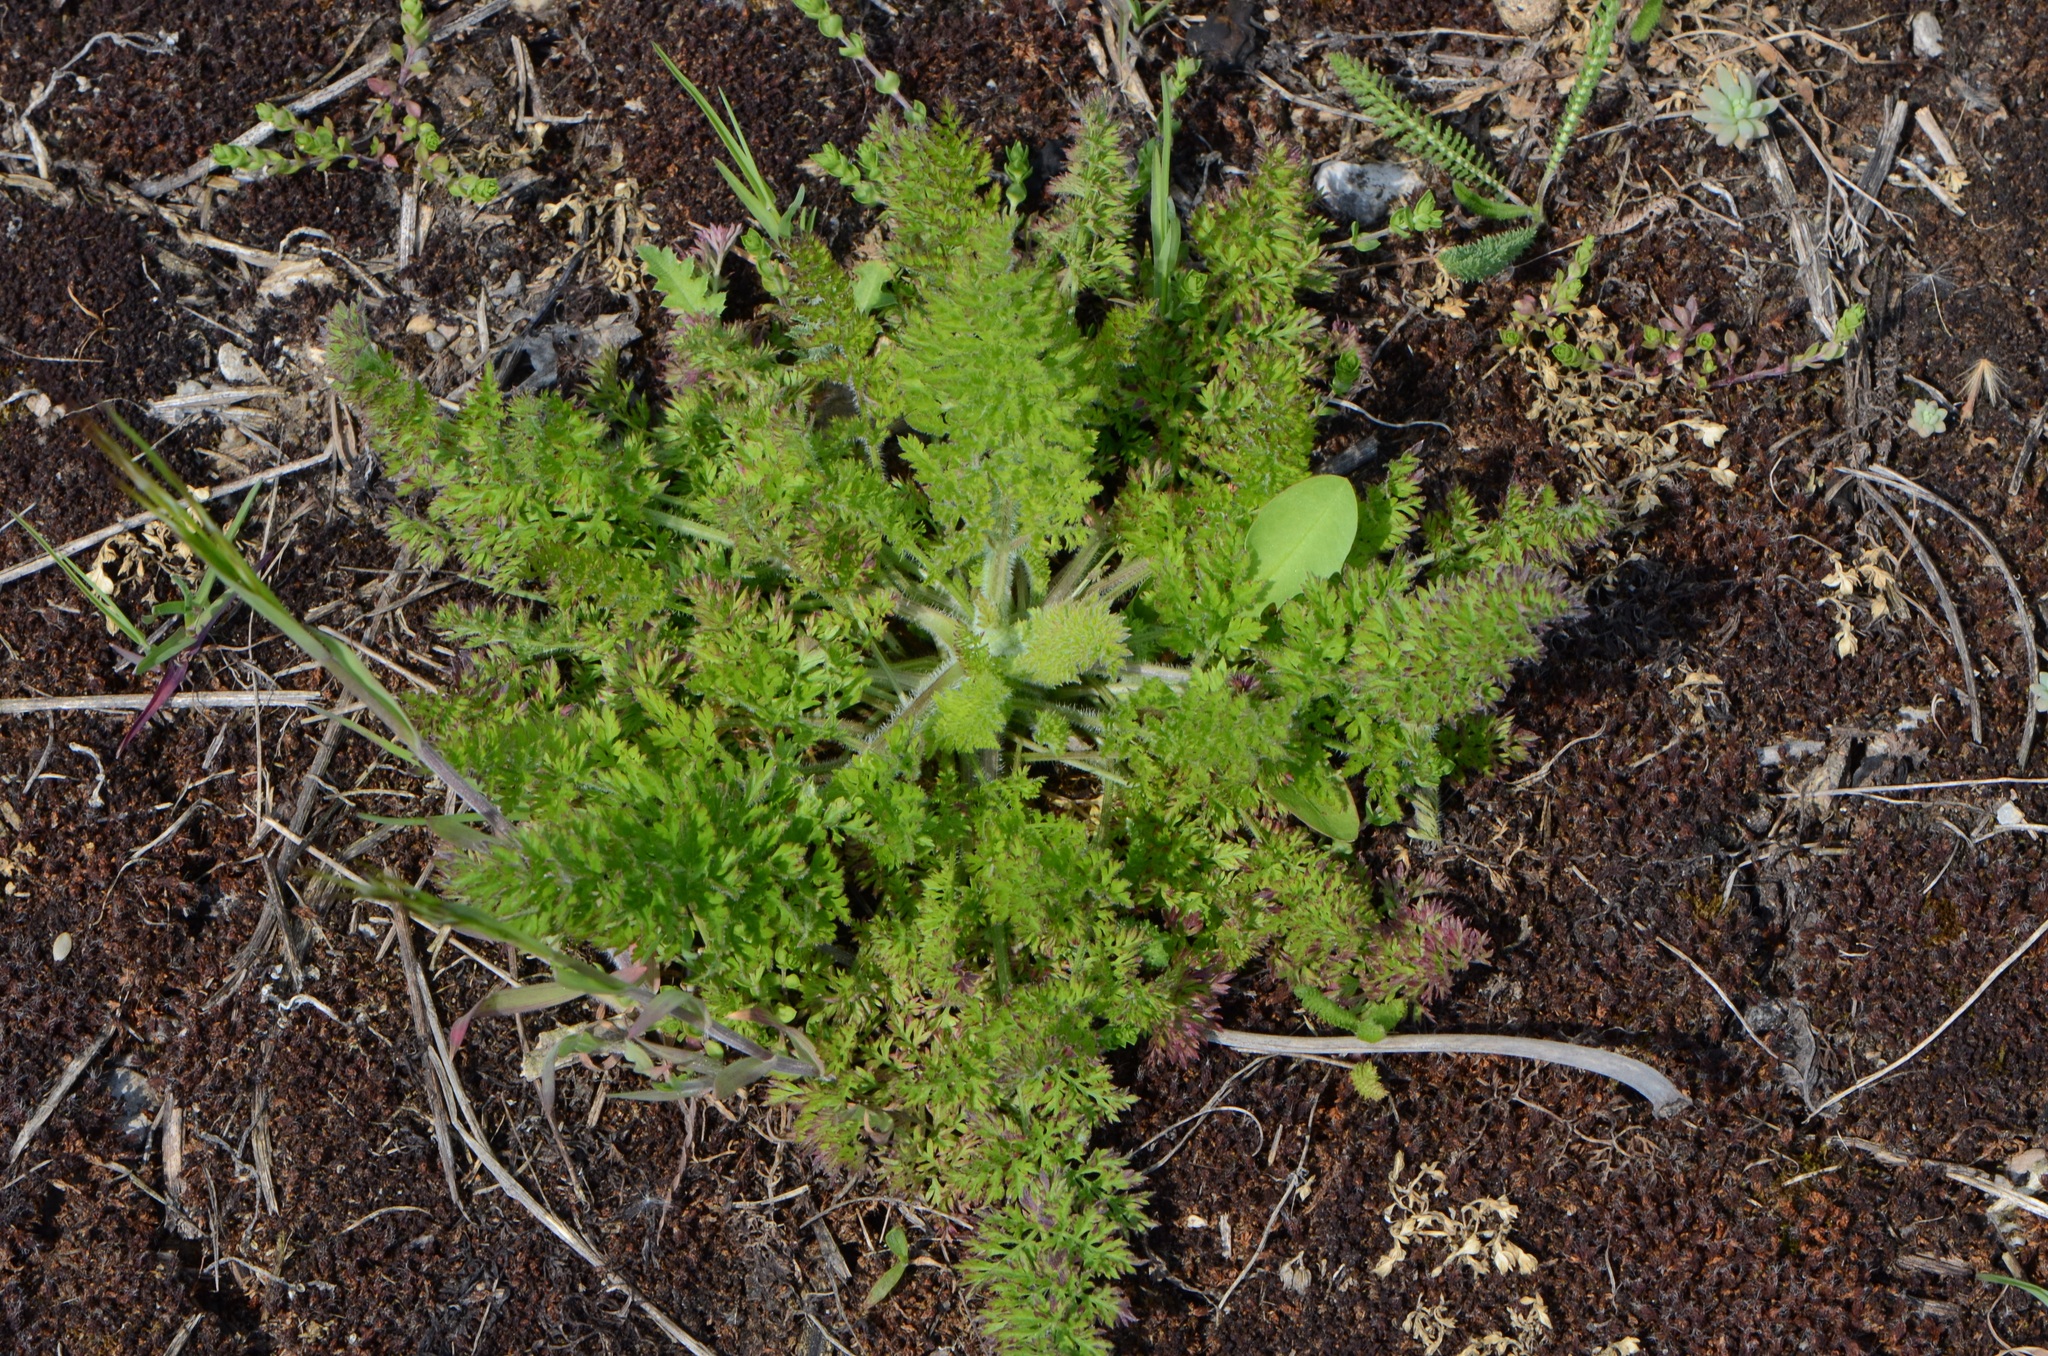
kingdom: Plantae
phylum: Tracheophyta
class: Magnoliopsida
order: Apiales
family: Apiaceae
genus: Daucus
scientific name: Daucus carota
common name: Wild carrot
